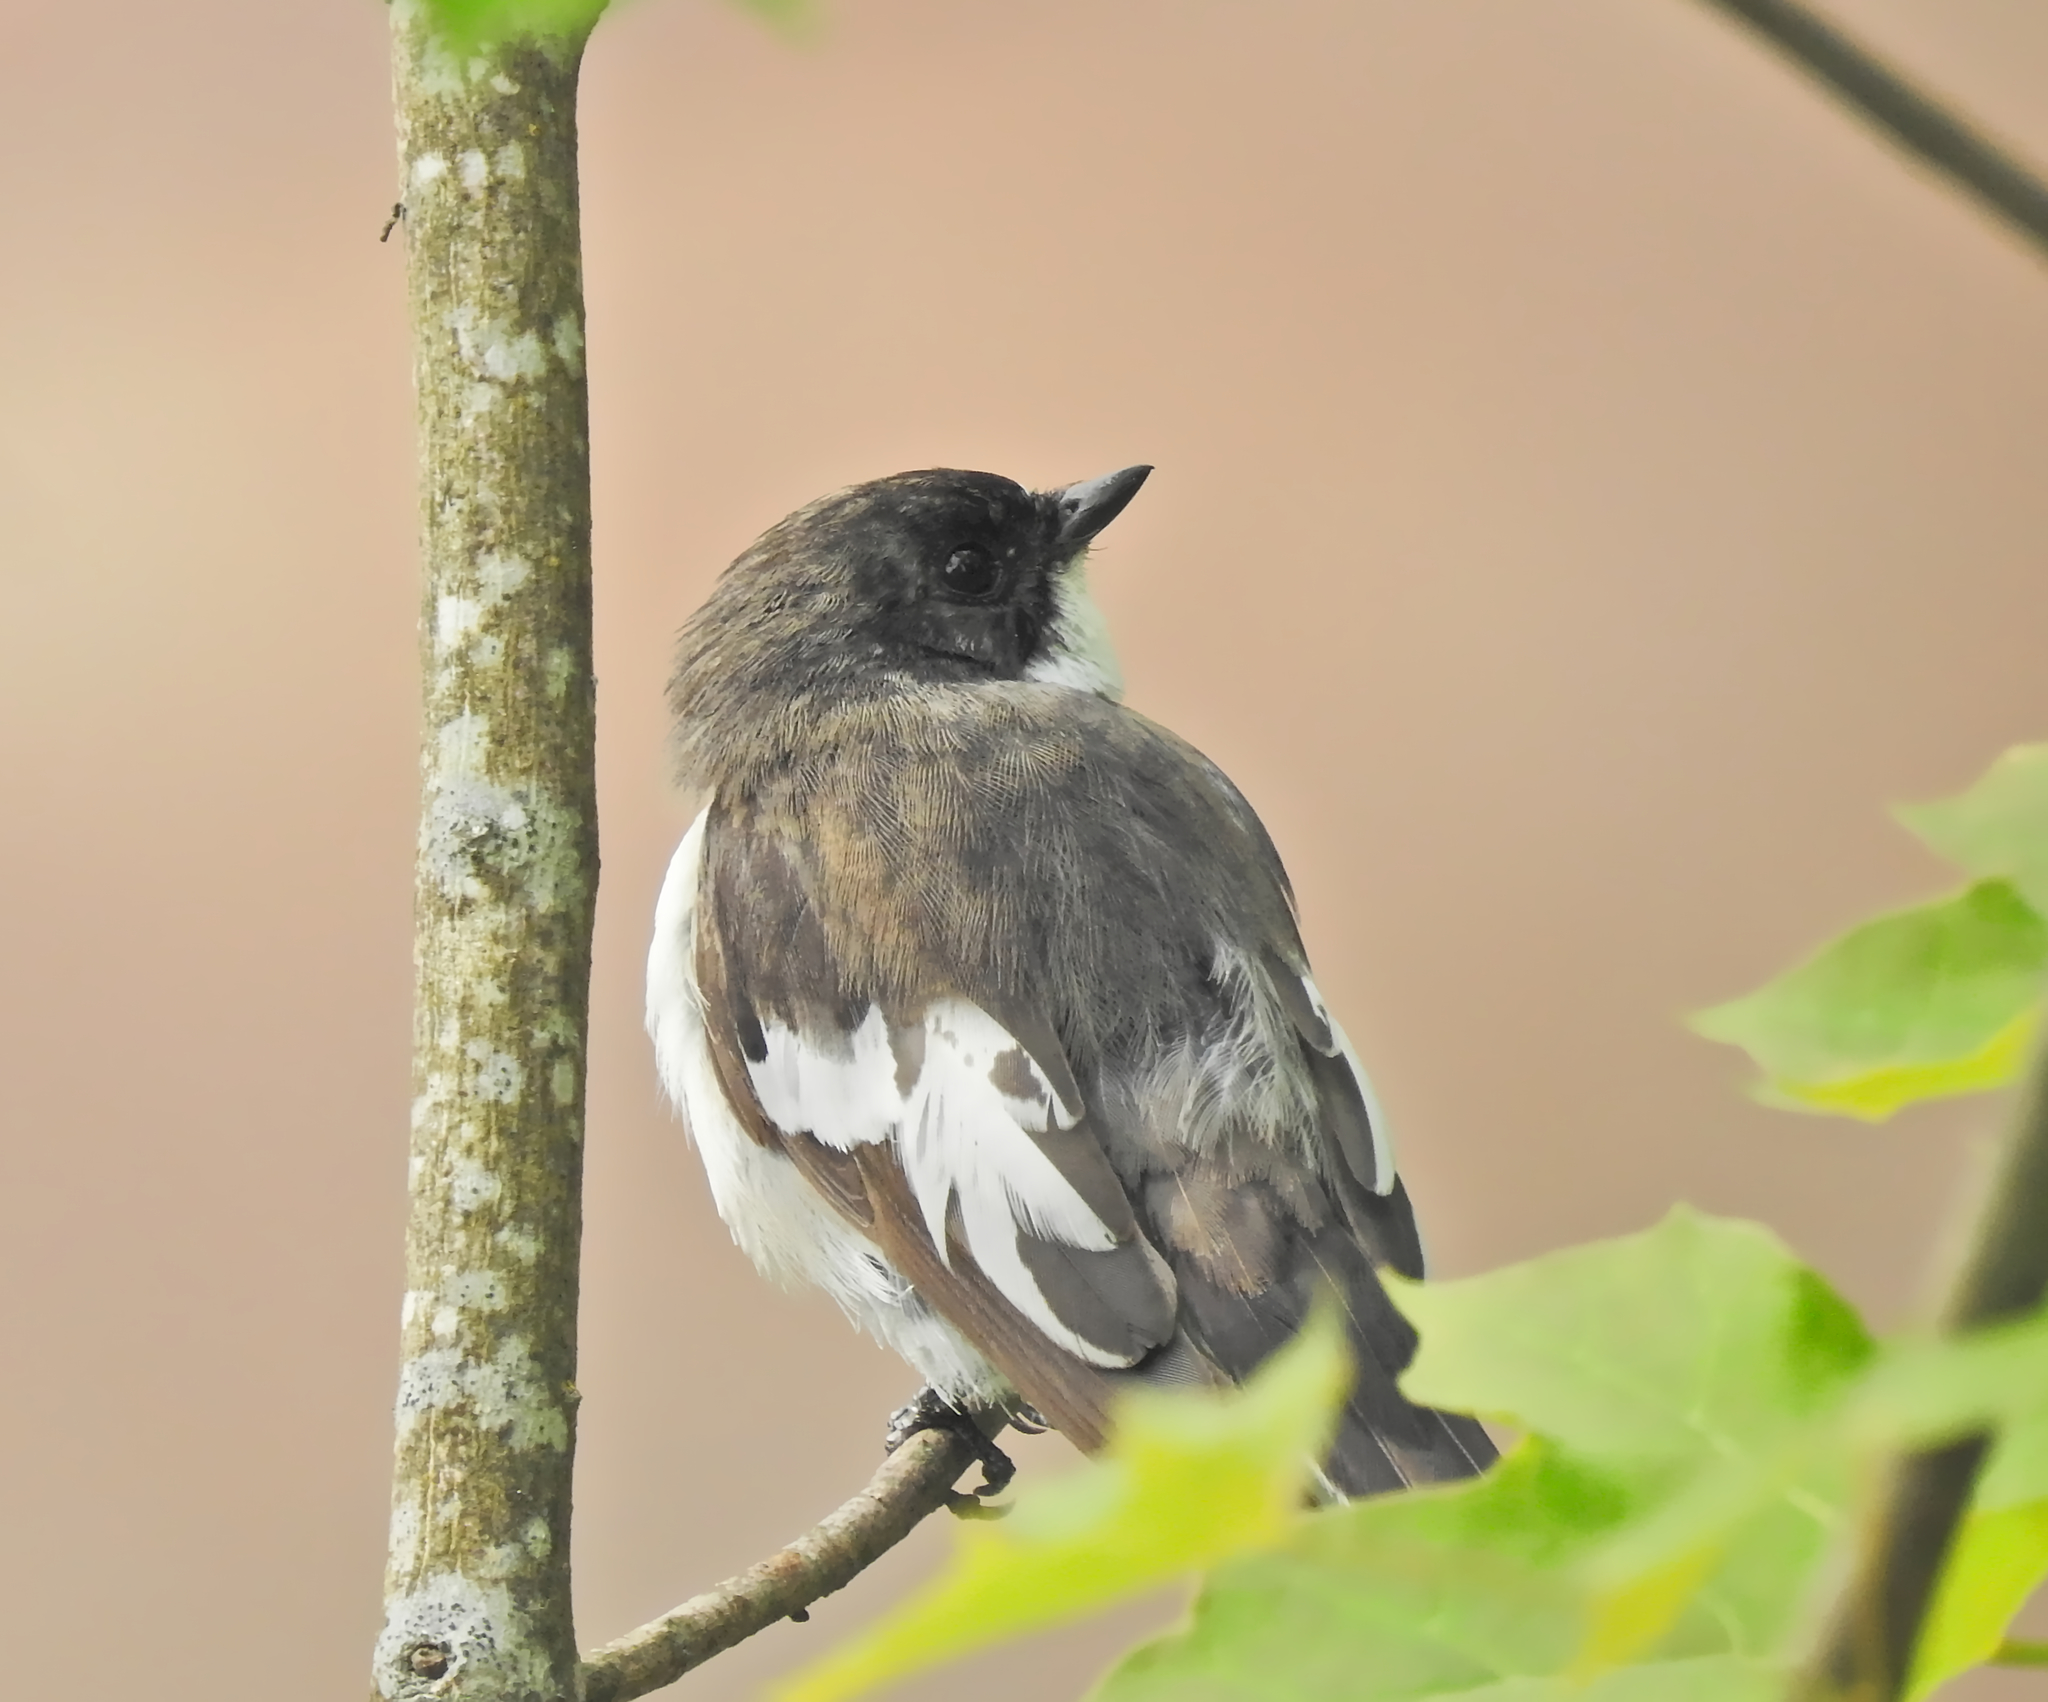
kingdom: Animalia
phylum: Chordata
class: Aves
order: Passeriformes
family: Muscicapidae
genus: Ficedula
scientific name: Ficedula hypoleuca
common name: European pied flycatcher
